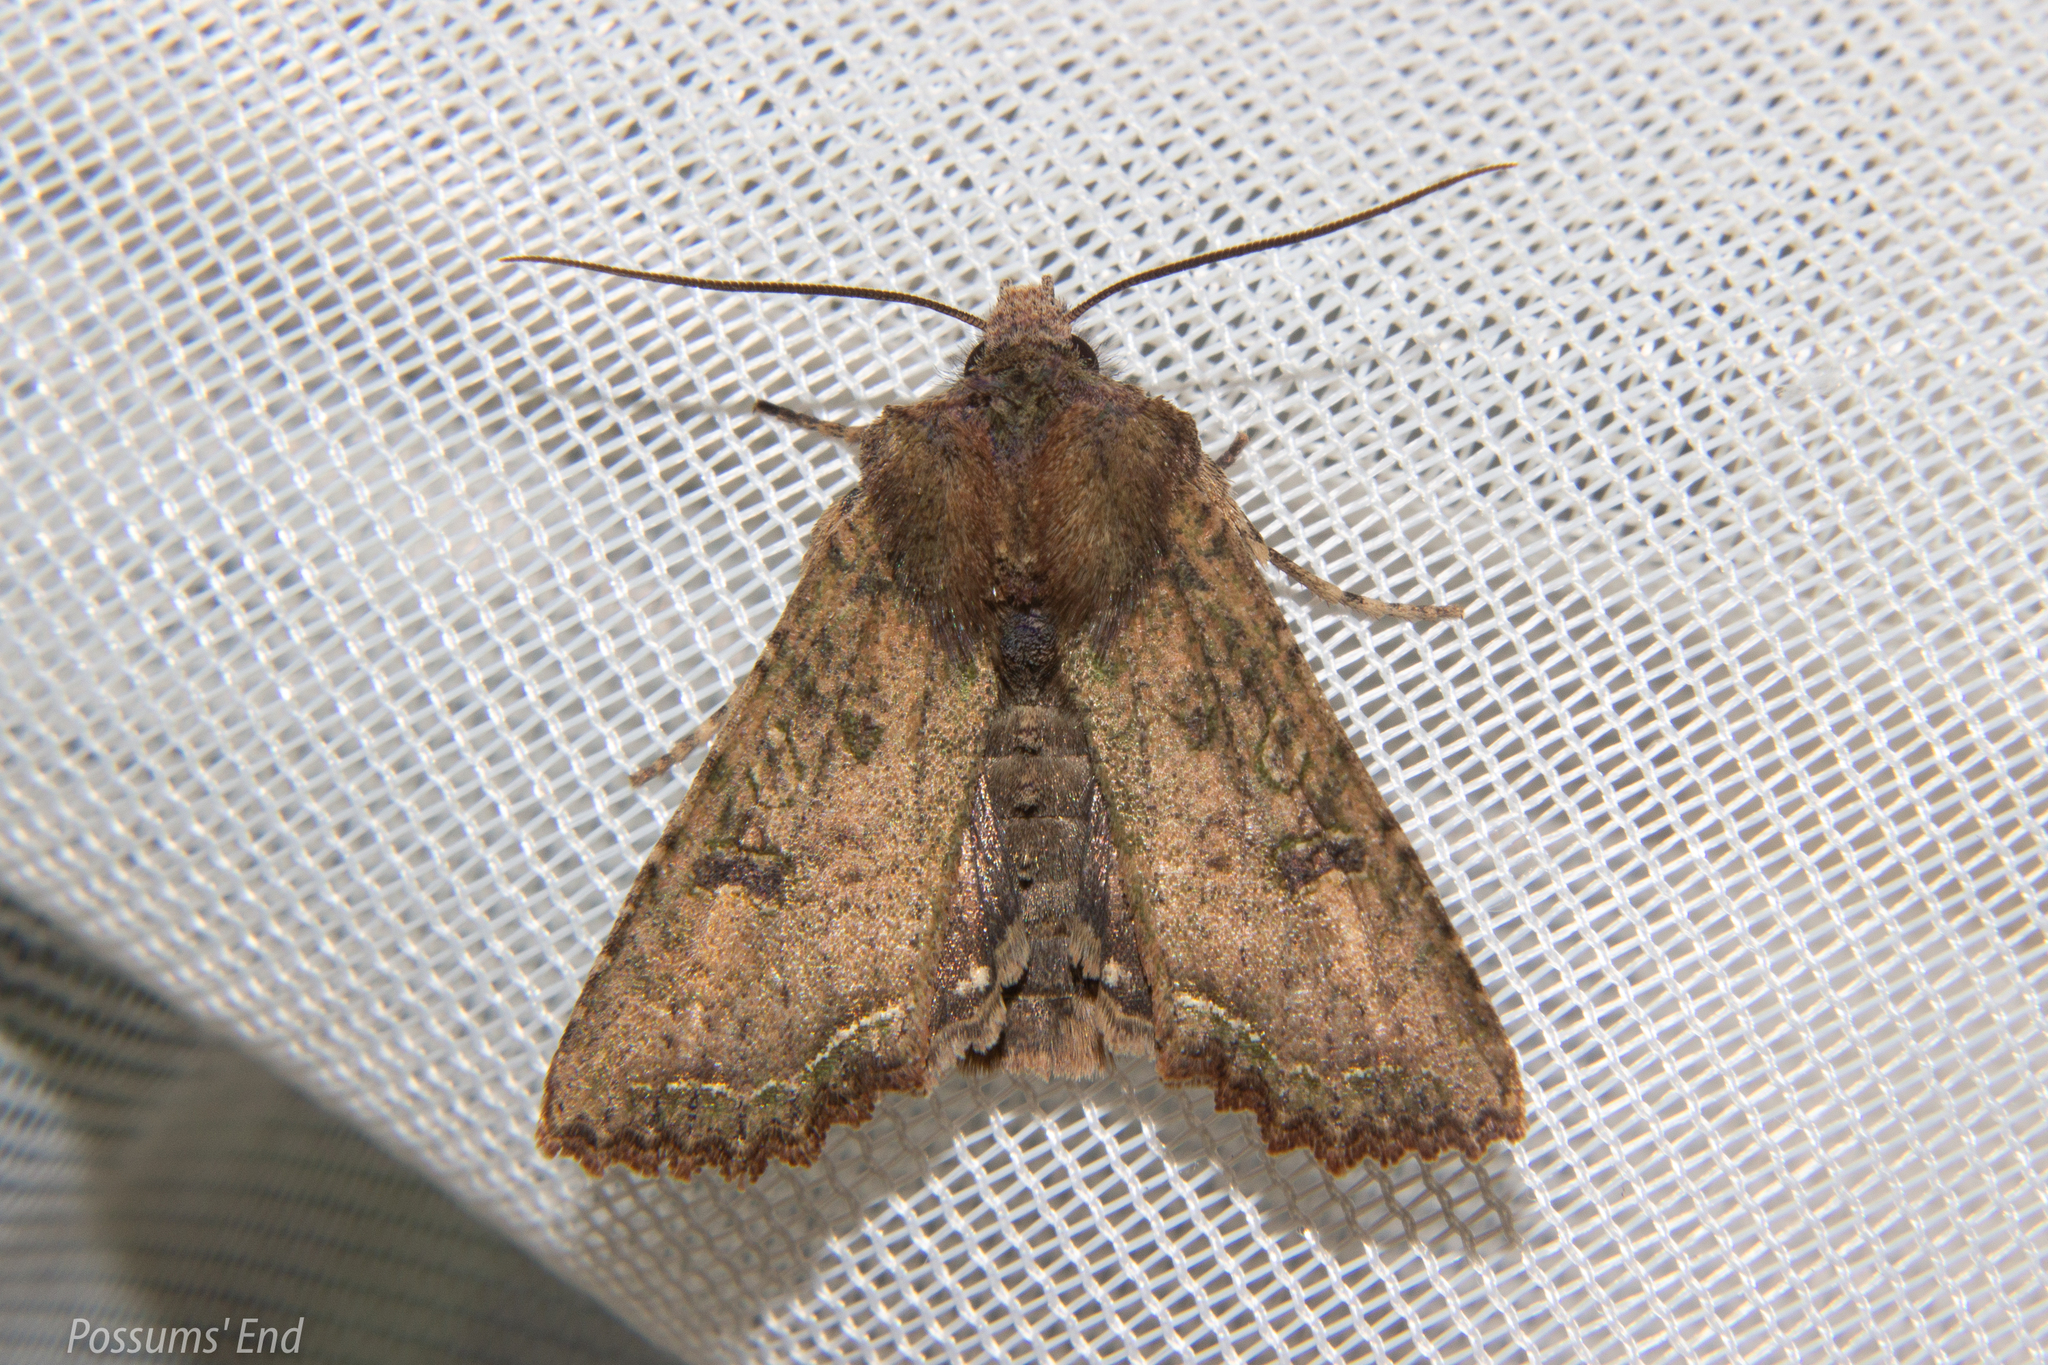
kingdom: Animalia
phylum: Arthropoda
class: Insecta
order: Lepidoptera
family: Noctuidae
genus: Meterana
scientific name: Meterana inchoata
